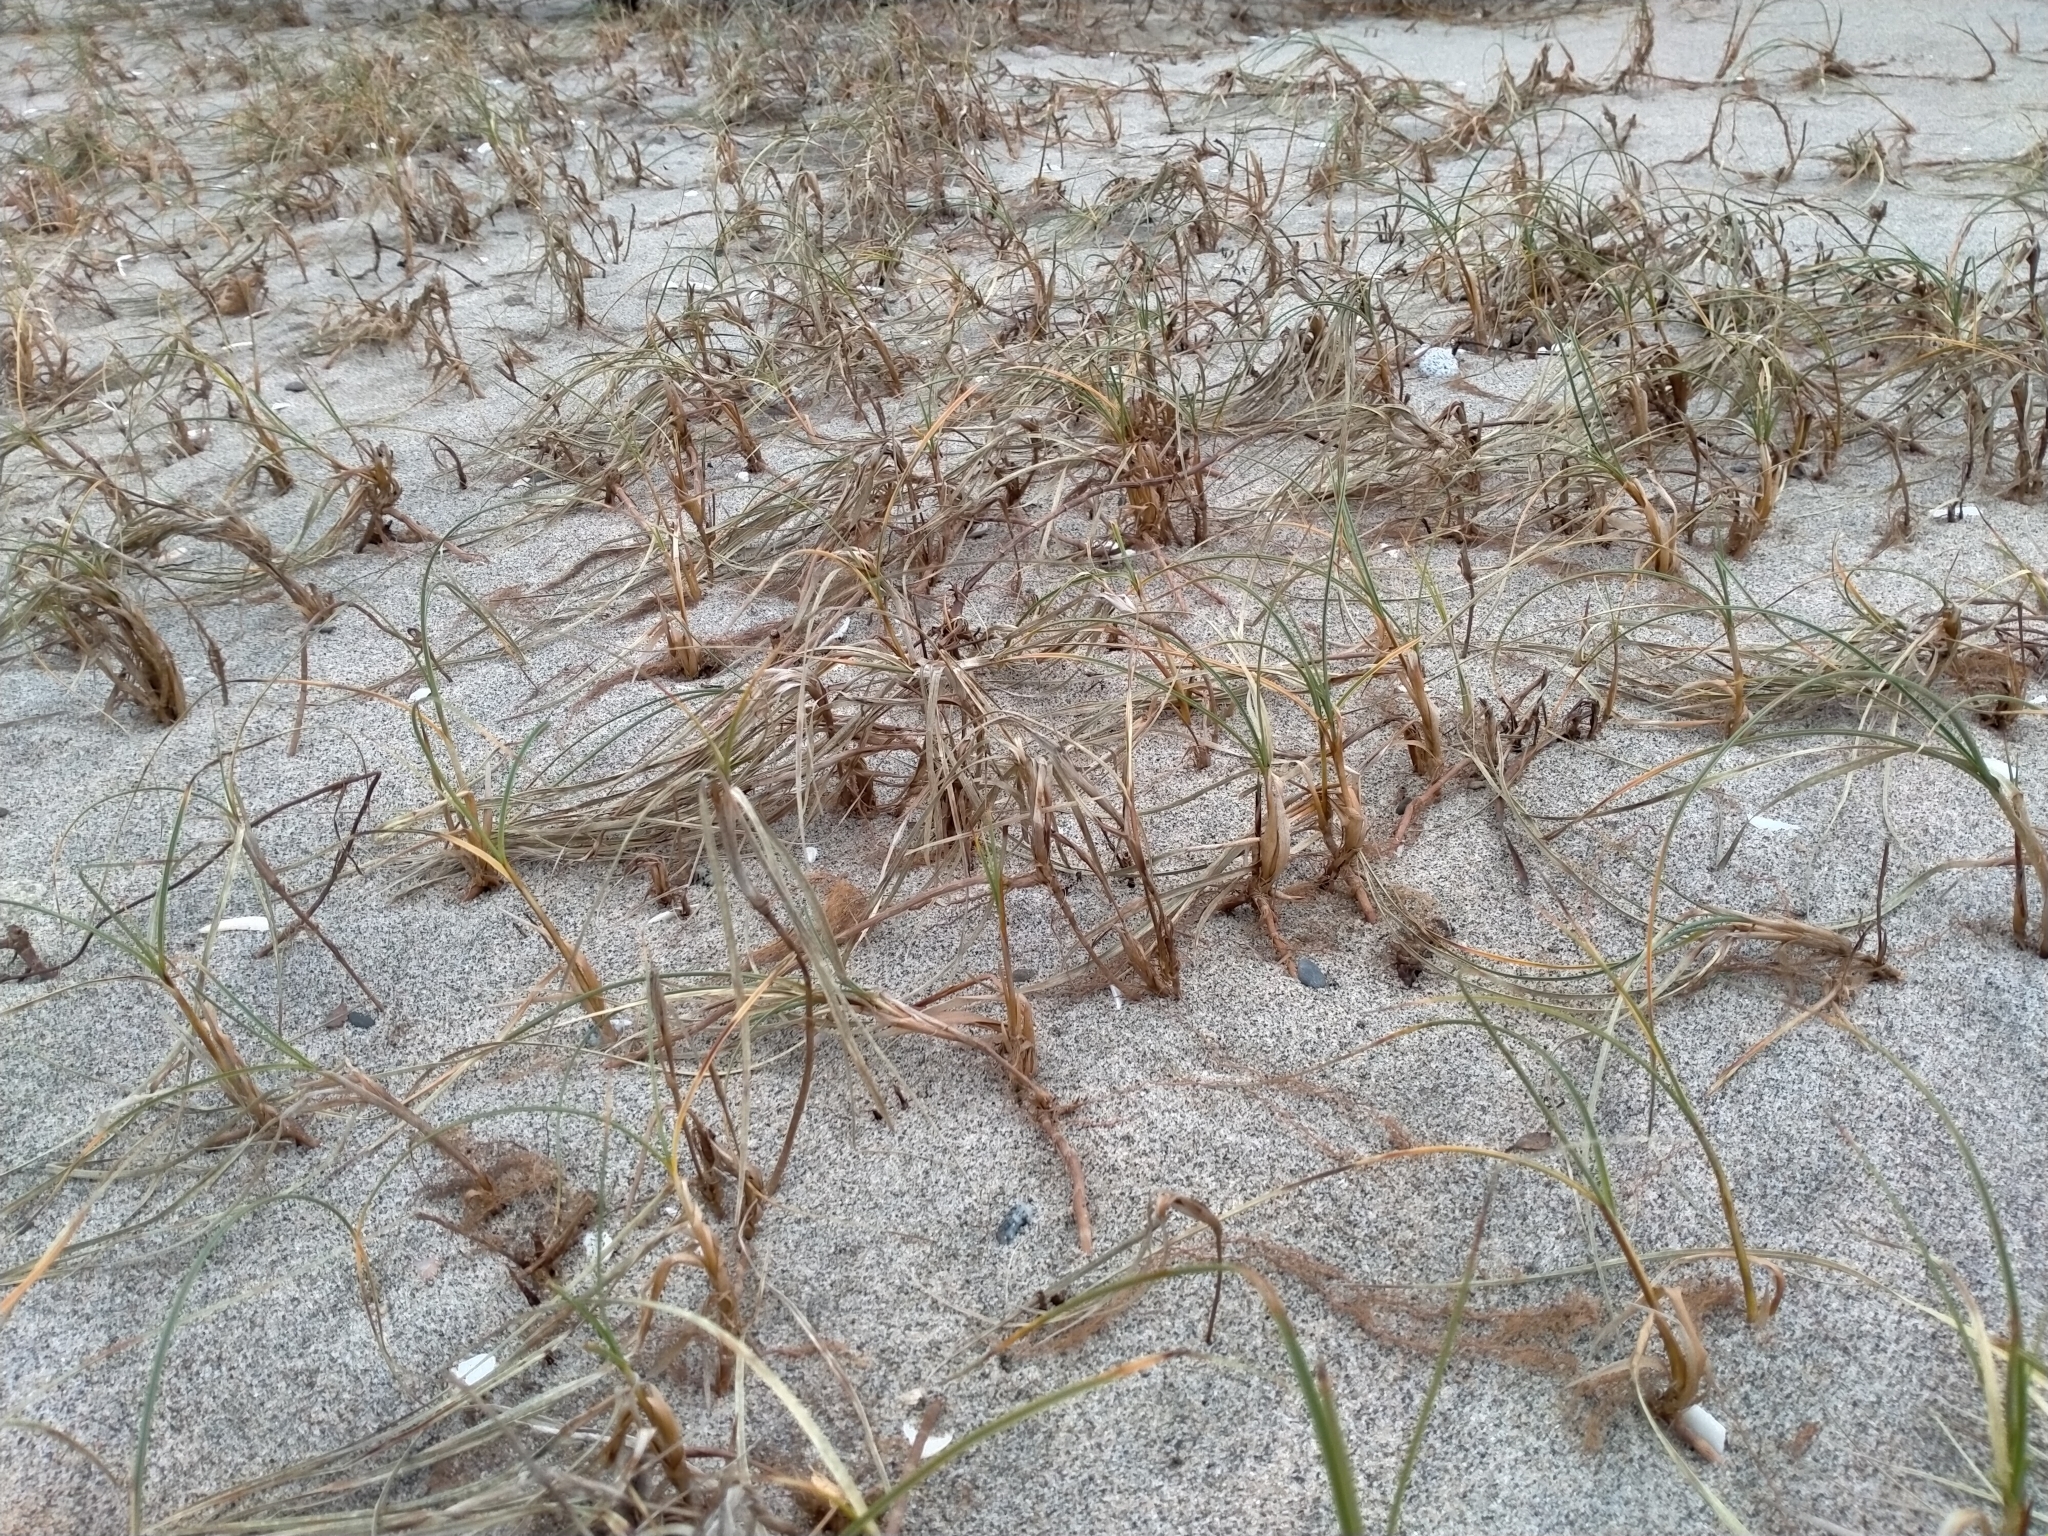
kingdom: Plantae
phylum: Tracheophyta
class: Liliopsida
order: Poales
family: Cyperaceae
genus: Carex
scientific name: Carex pumila
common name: Dwarf sedge
